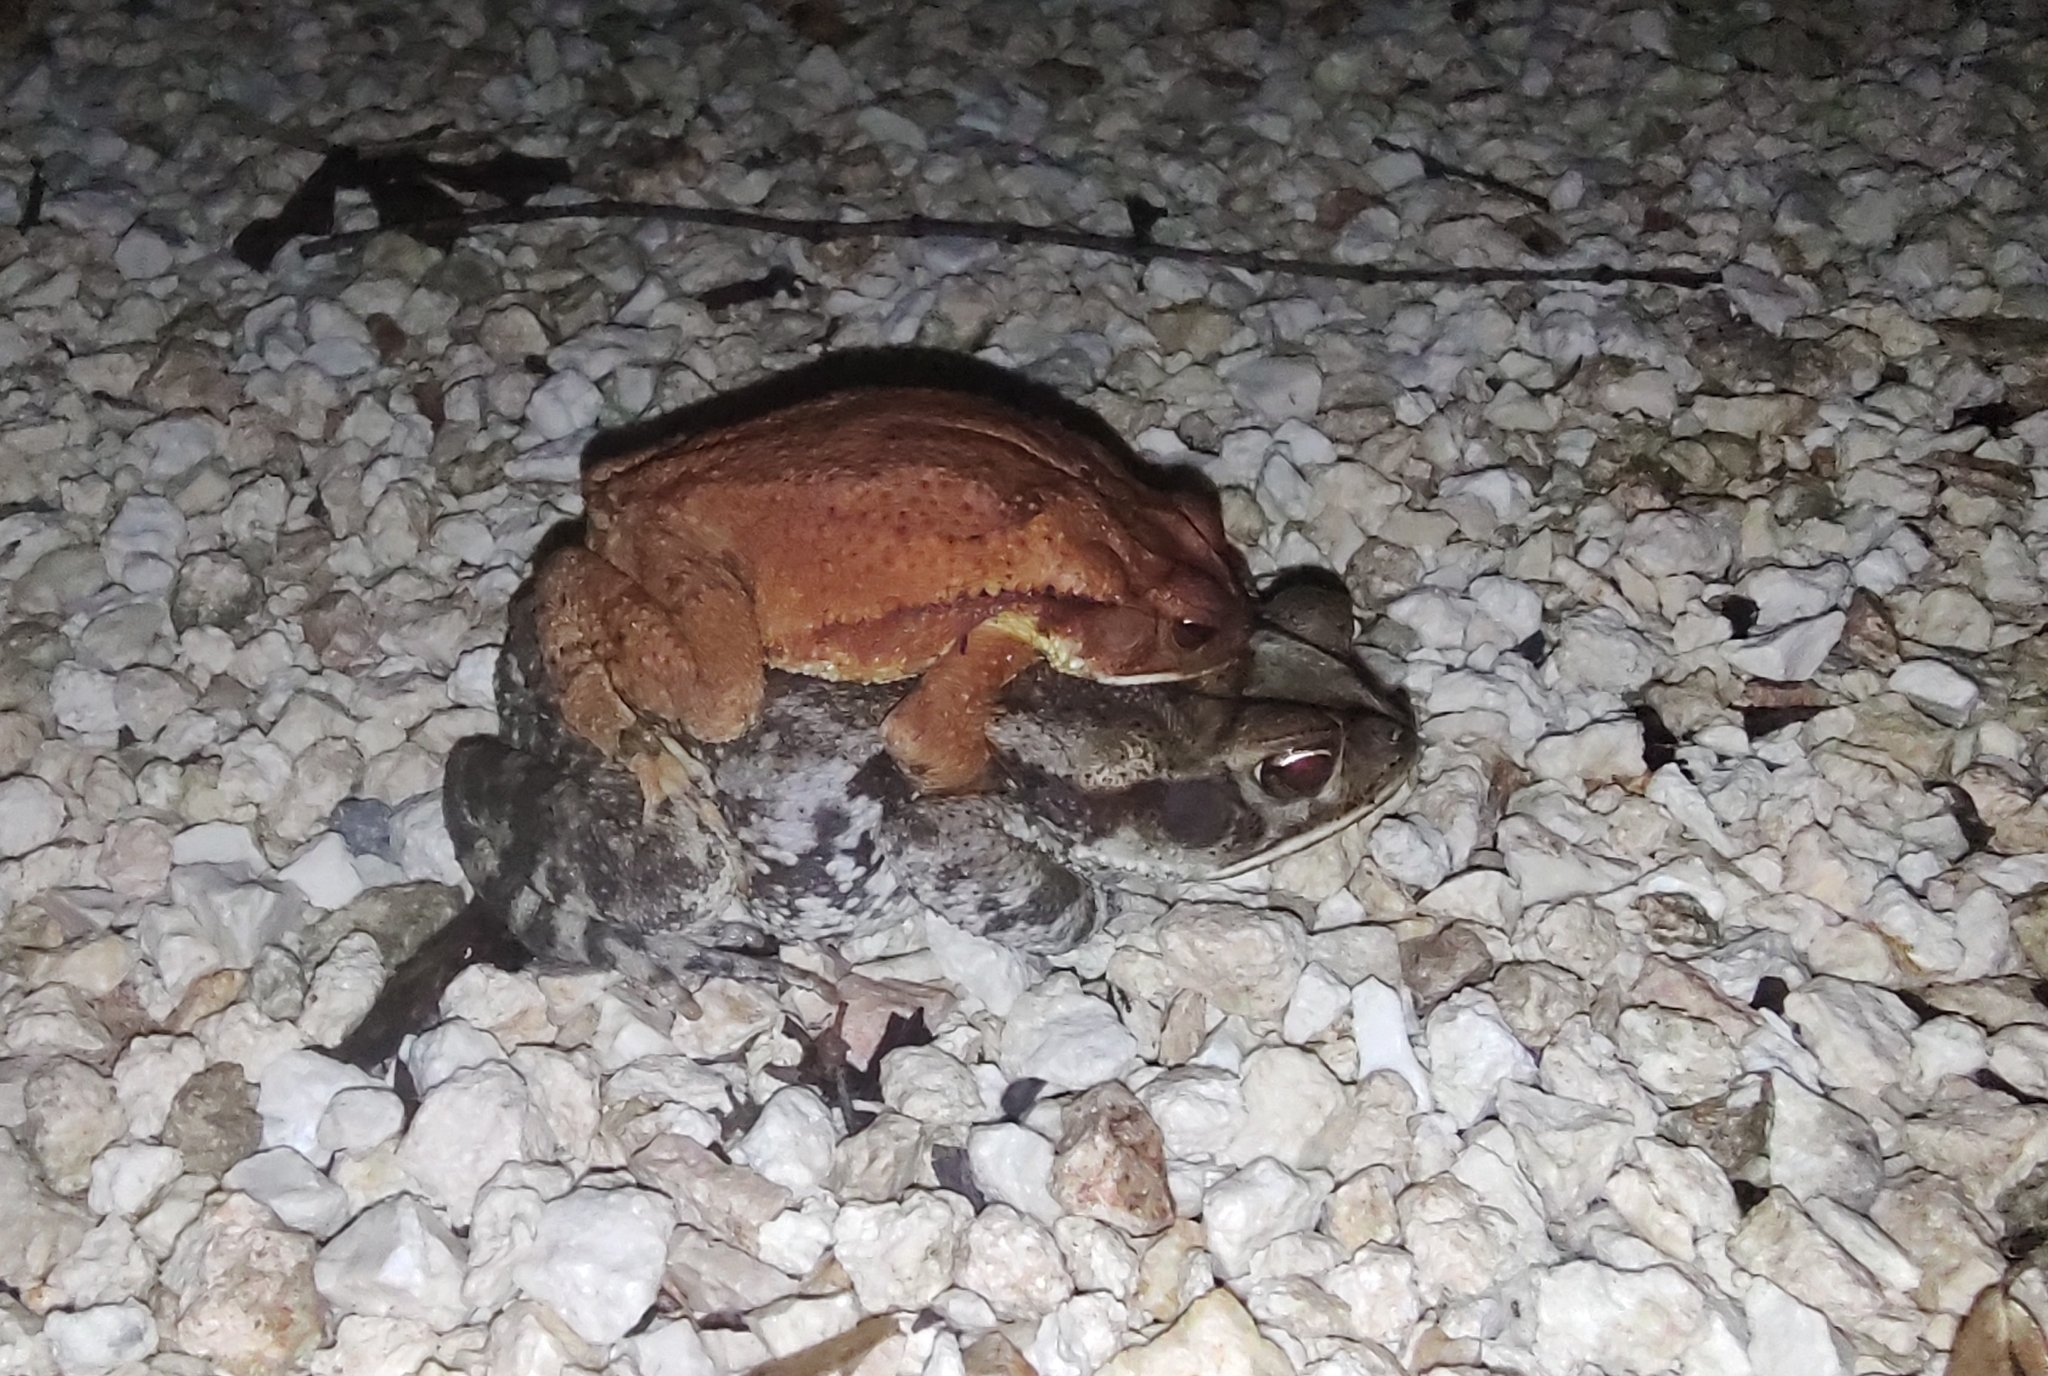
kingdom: Animalia
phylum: Chordata
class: Amphibia
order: Anura
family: Bufonidae
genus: Incilius
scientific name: Incilius valliceps
